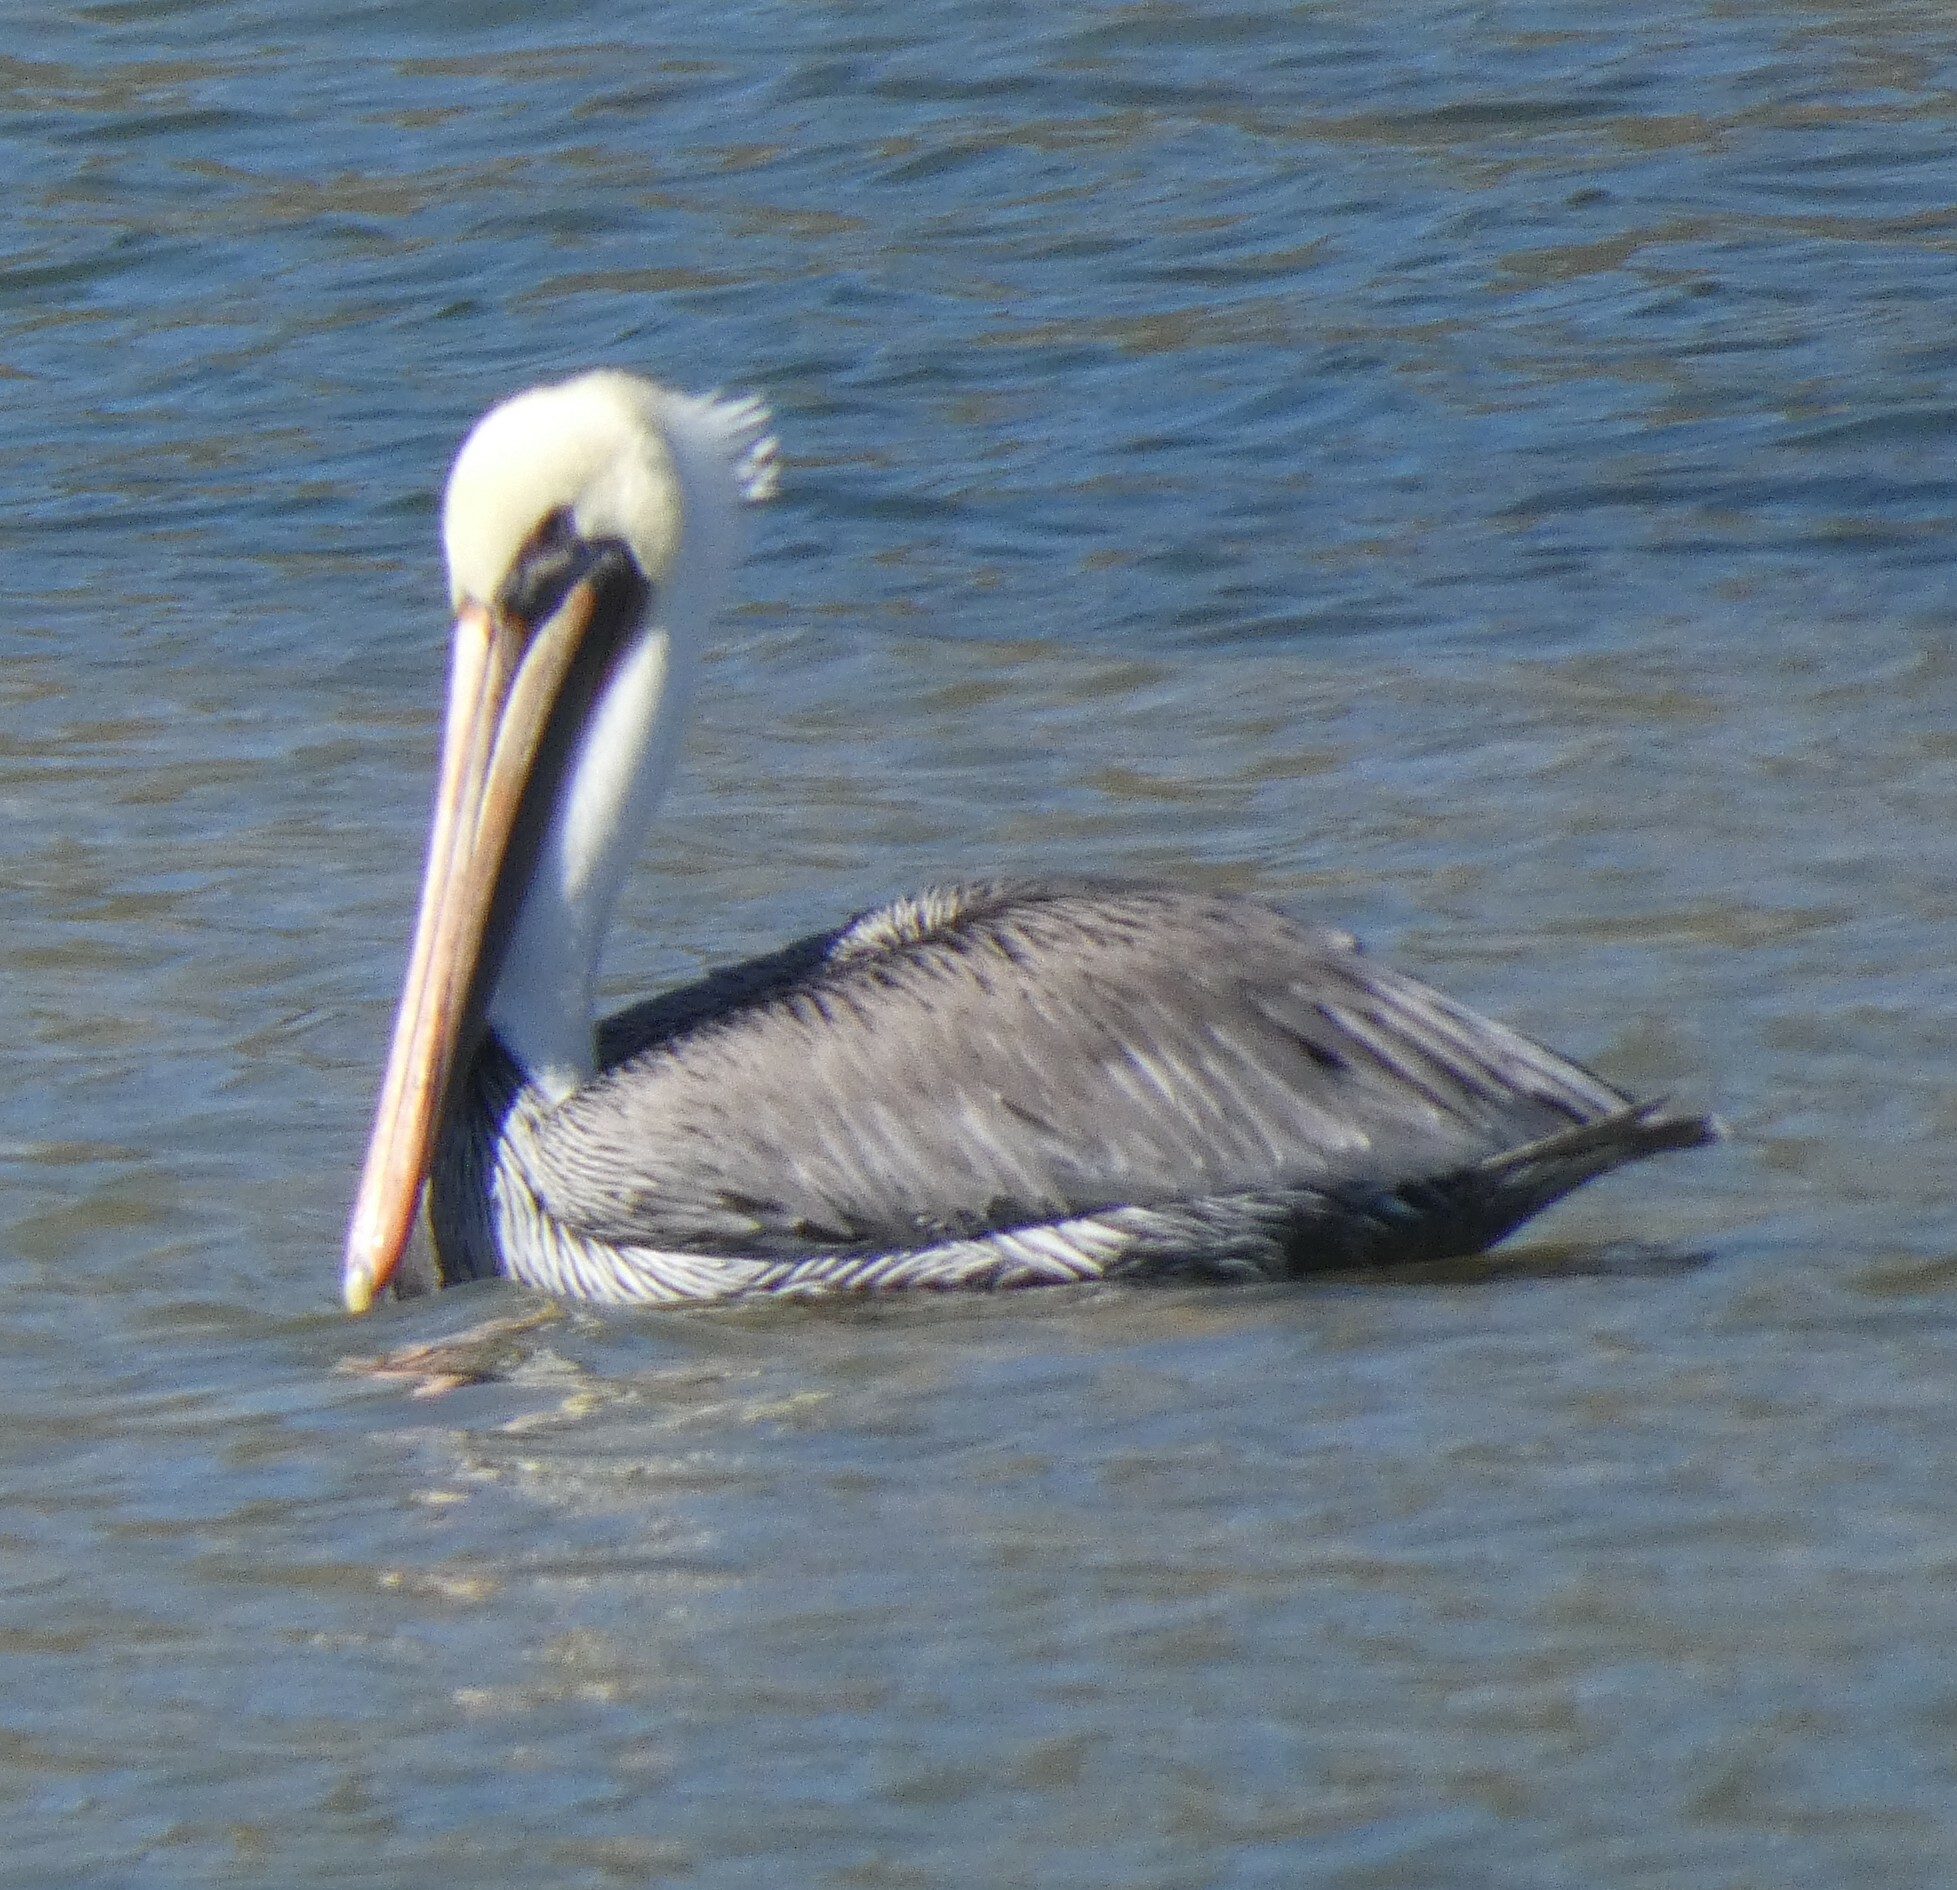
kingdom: Animalia
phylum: Chordata
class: Aves
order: Pelecaniformes
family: Pelecanidae
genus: Pelecanus
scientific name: Pelecanus occidentalis
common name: Brown pelican
